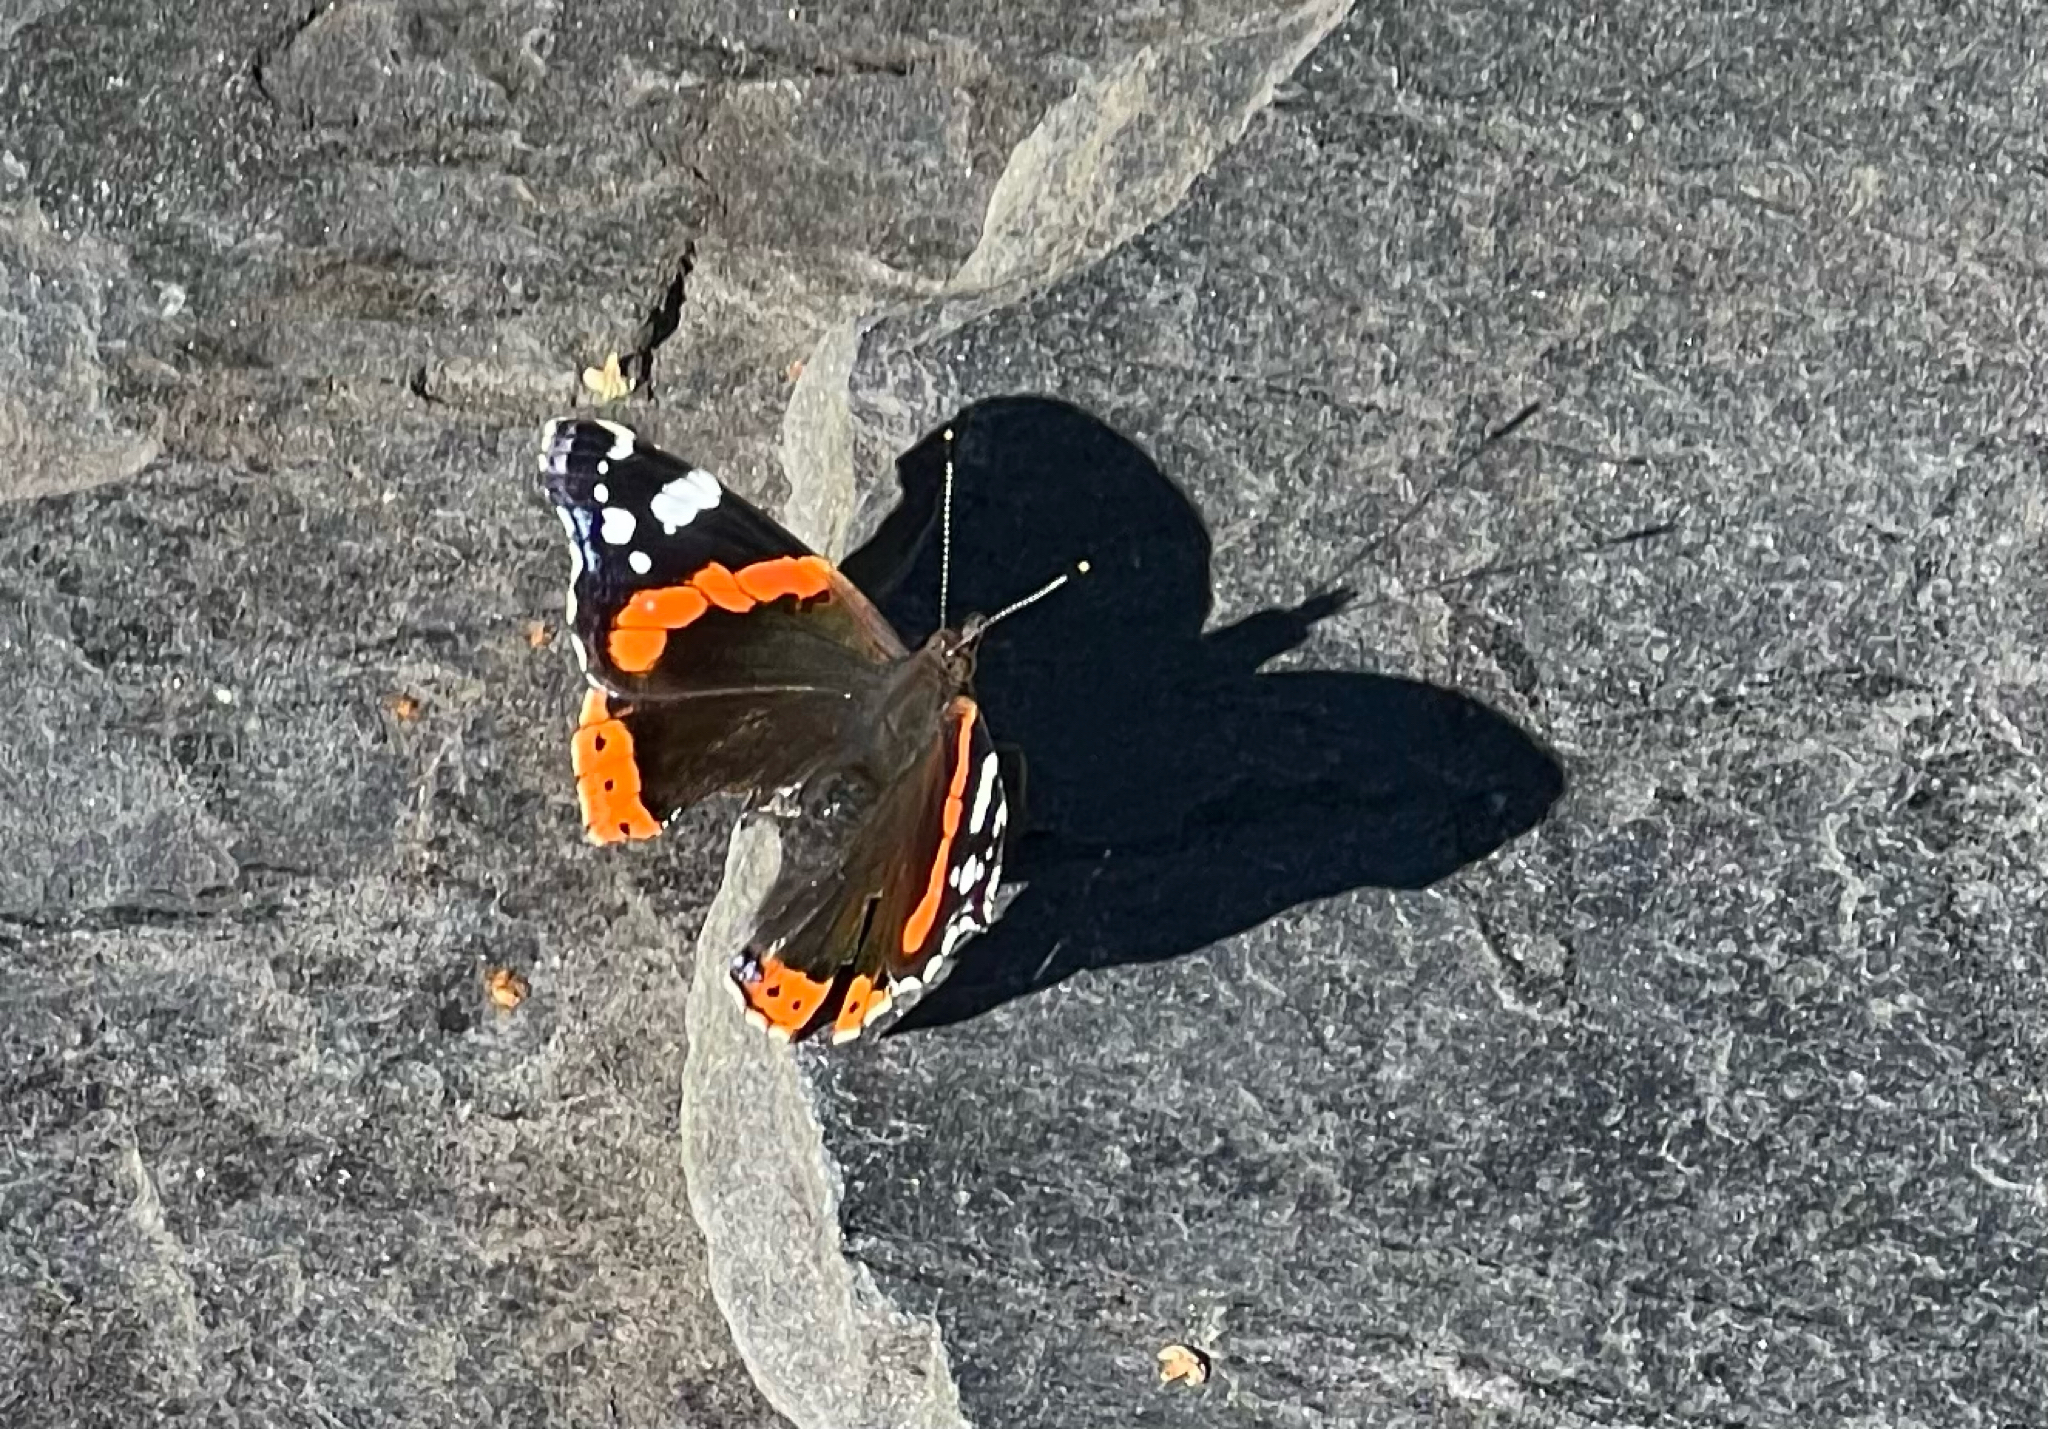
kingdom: Animalia
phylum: Arthropoda
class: Insecta
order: Lepidoptera
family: Nymphalidae
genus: Vanessa
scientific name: Vanessa atalanta
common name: Red admiral
